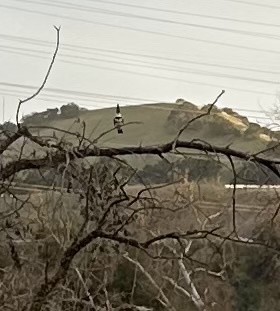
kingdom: Animalia
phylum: Chordata
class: Aves
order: Coraciiformes
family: Alcedinidae
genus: Megaceryle
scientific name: Megaceryle alcyon
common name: Belted kingfisher
